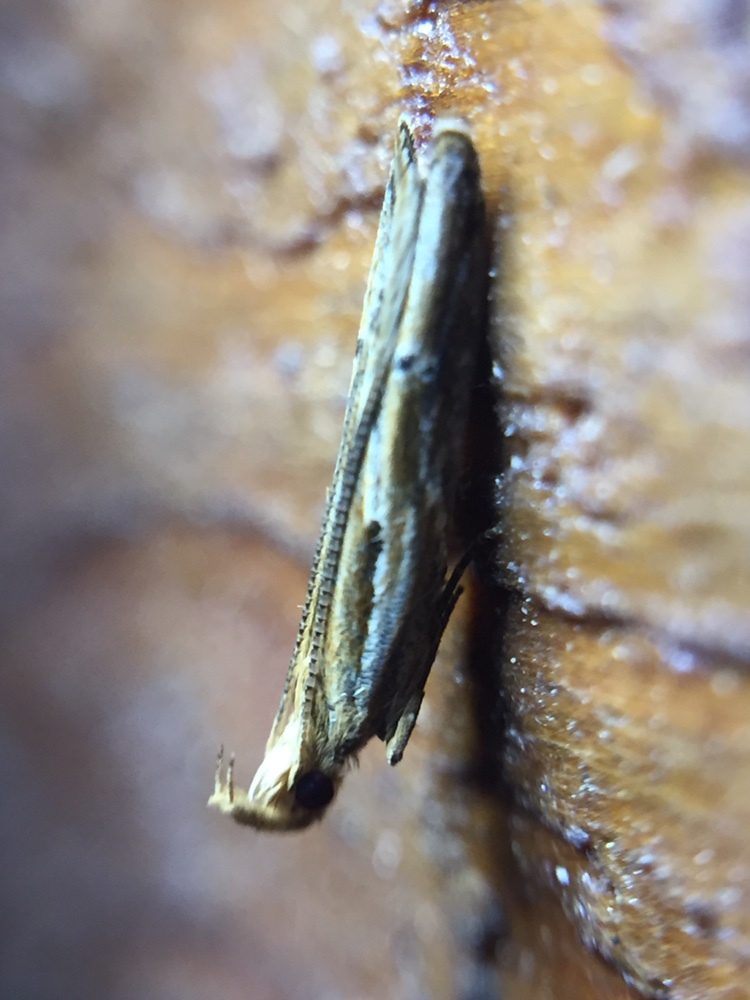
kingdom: Animalia
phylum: Arthropoda
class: Insecta
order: Lepidoptera
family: Depressariidae
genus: Eutorna
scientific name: Eutorna symmorpha
